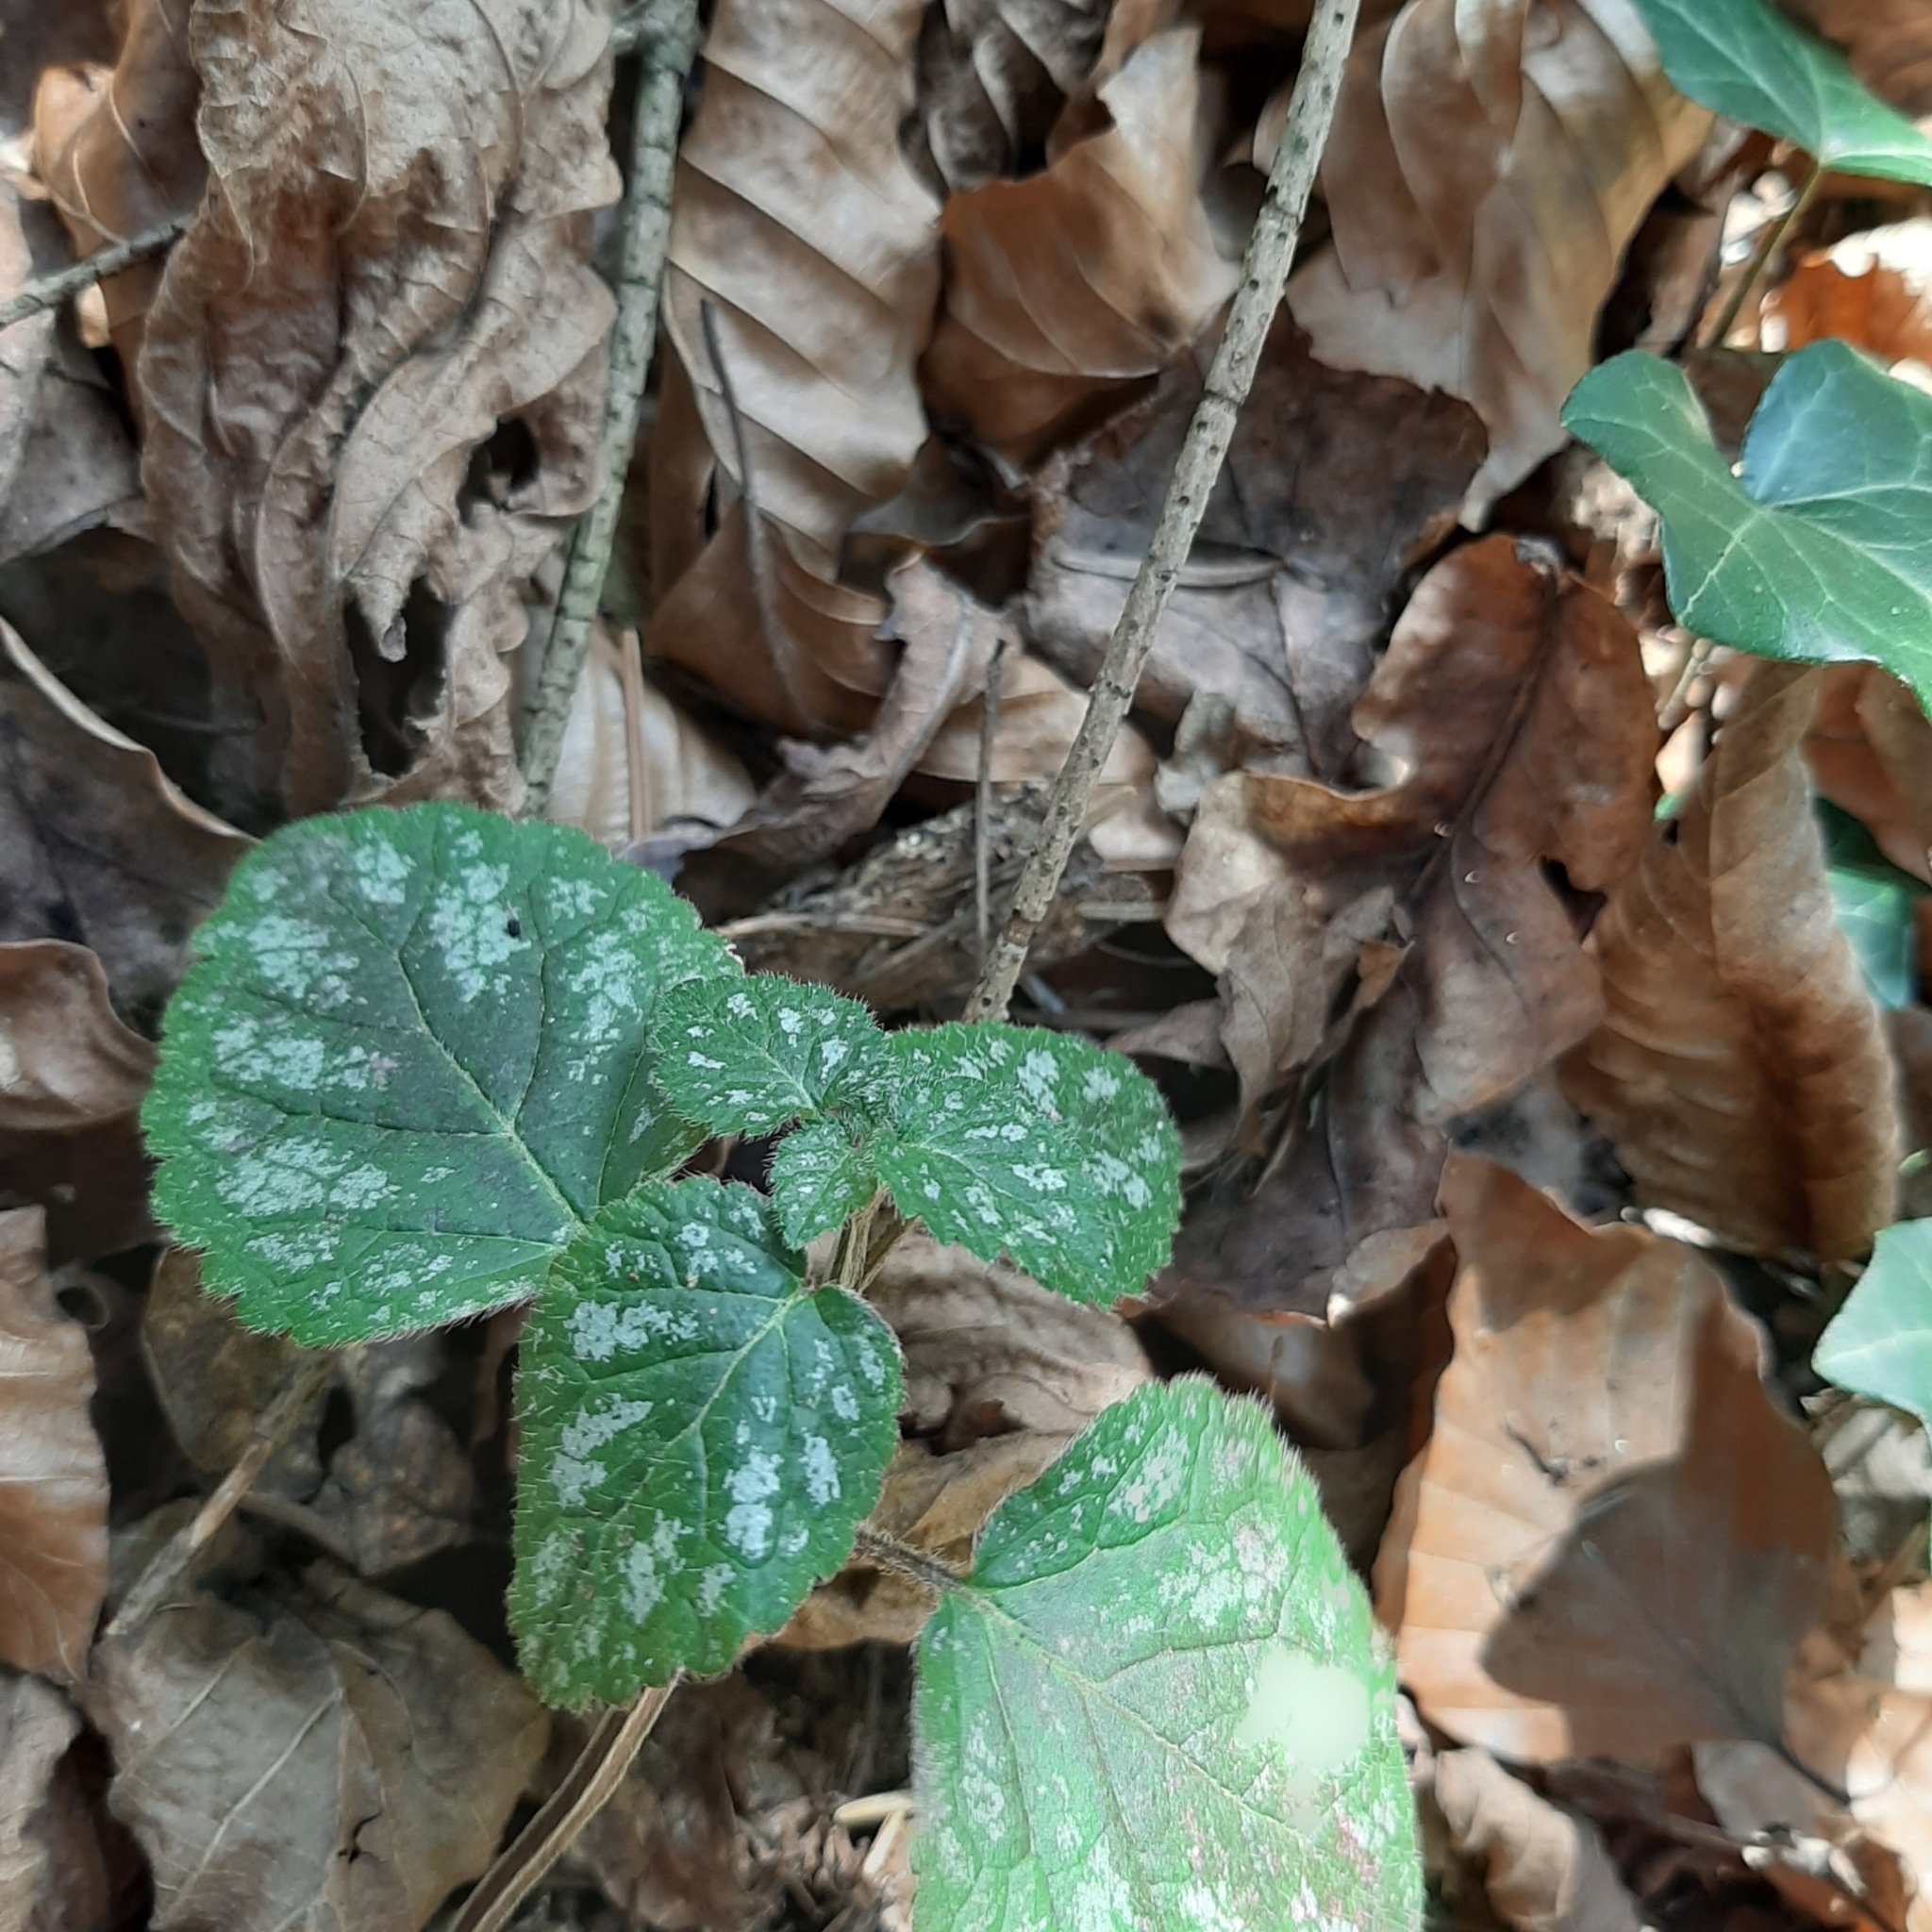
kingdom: Plantae
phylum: Tracheophyta
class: Magnoliopsida
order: Lamiales
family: Lamiaceae
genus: Lamium
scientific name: Lamium galeobdolon
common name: Yellow archangel
